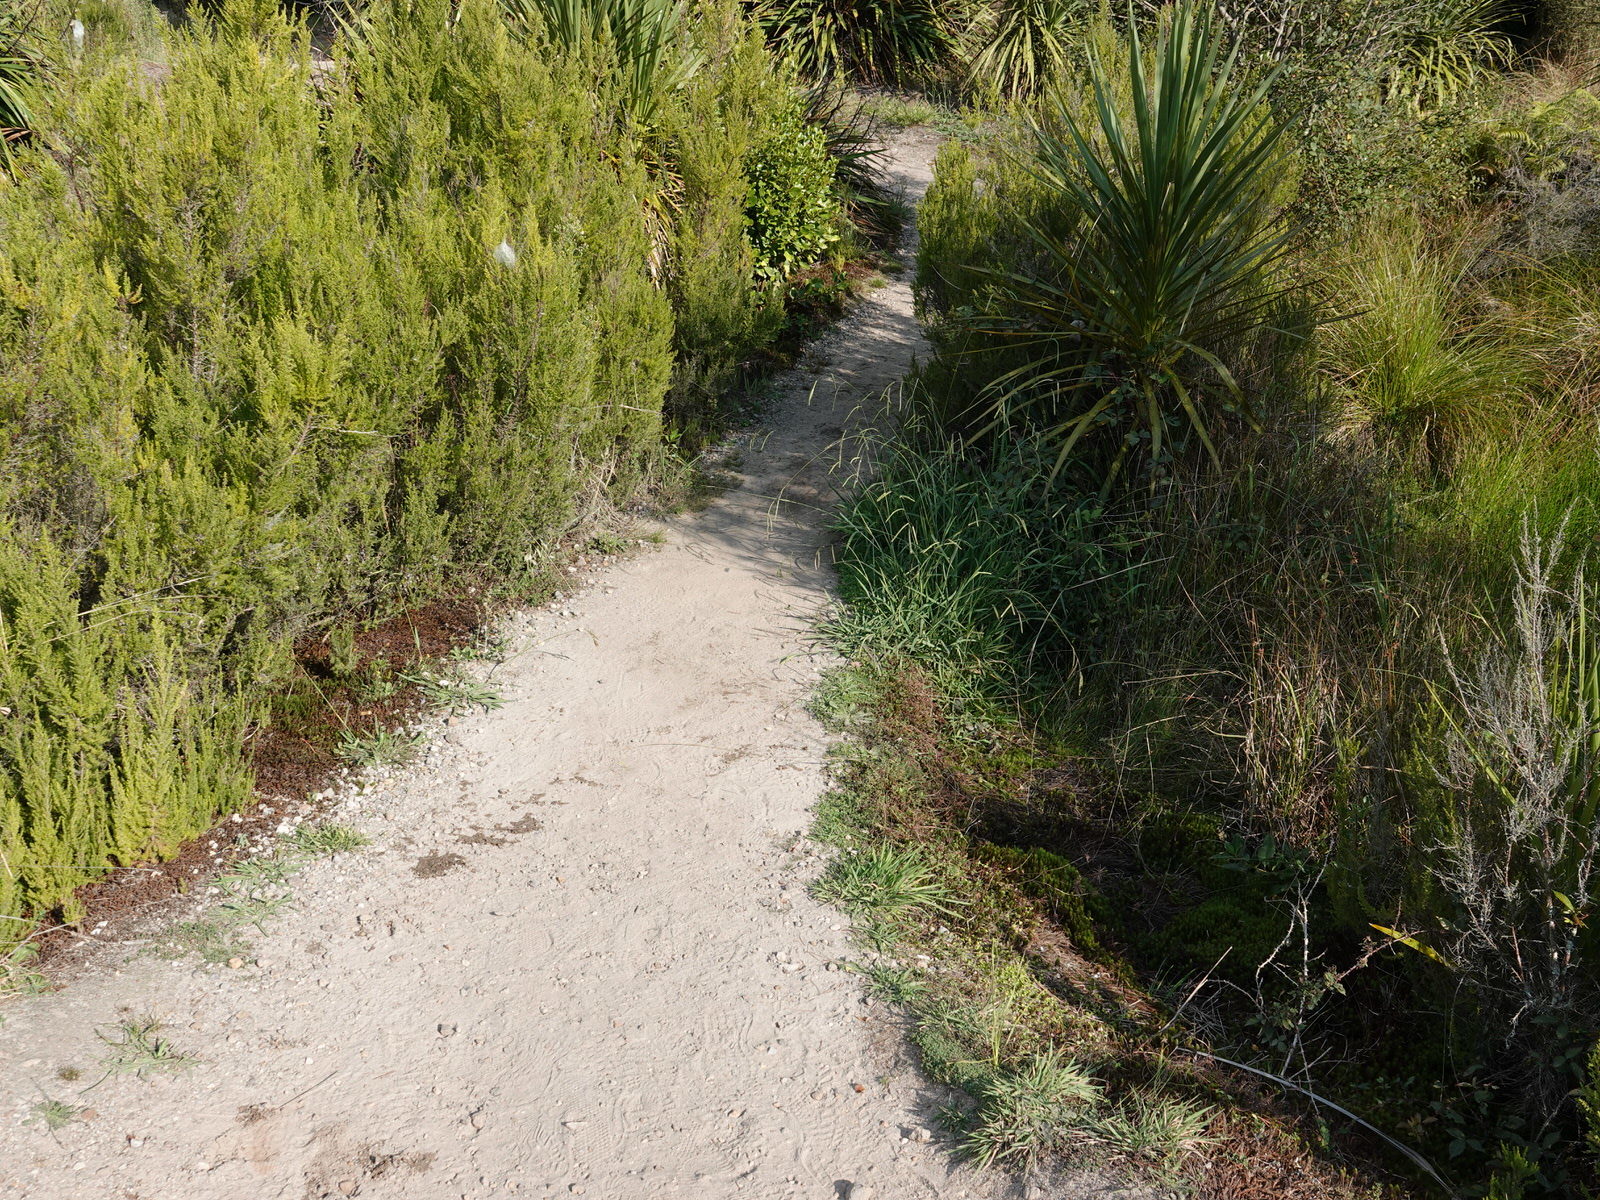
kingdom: Animalia
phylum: Arthropoda
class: Insecta
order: Odonata
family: Libellulidae
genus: Diplacodes
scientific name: Diplacodes bipunctata
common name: Red percher dragonfly
